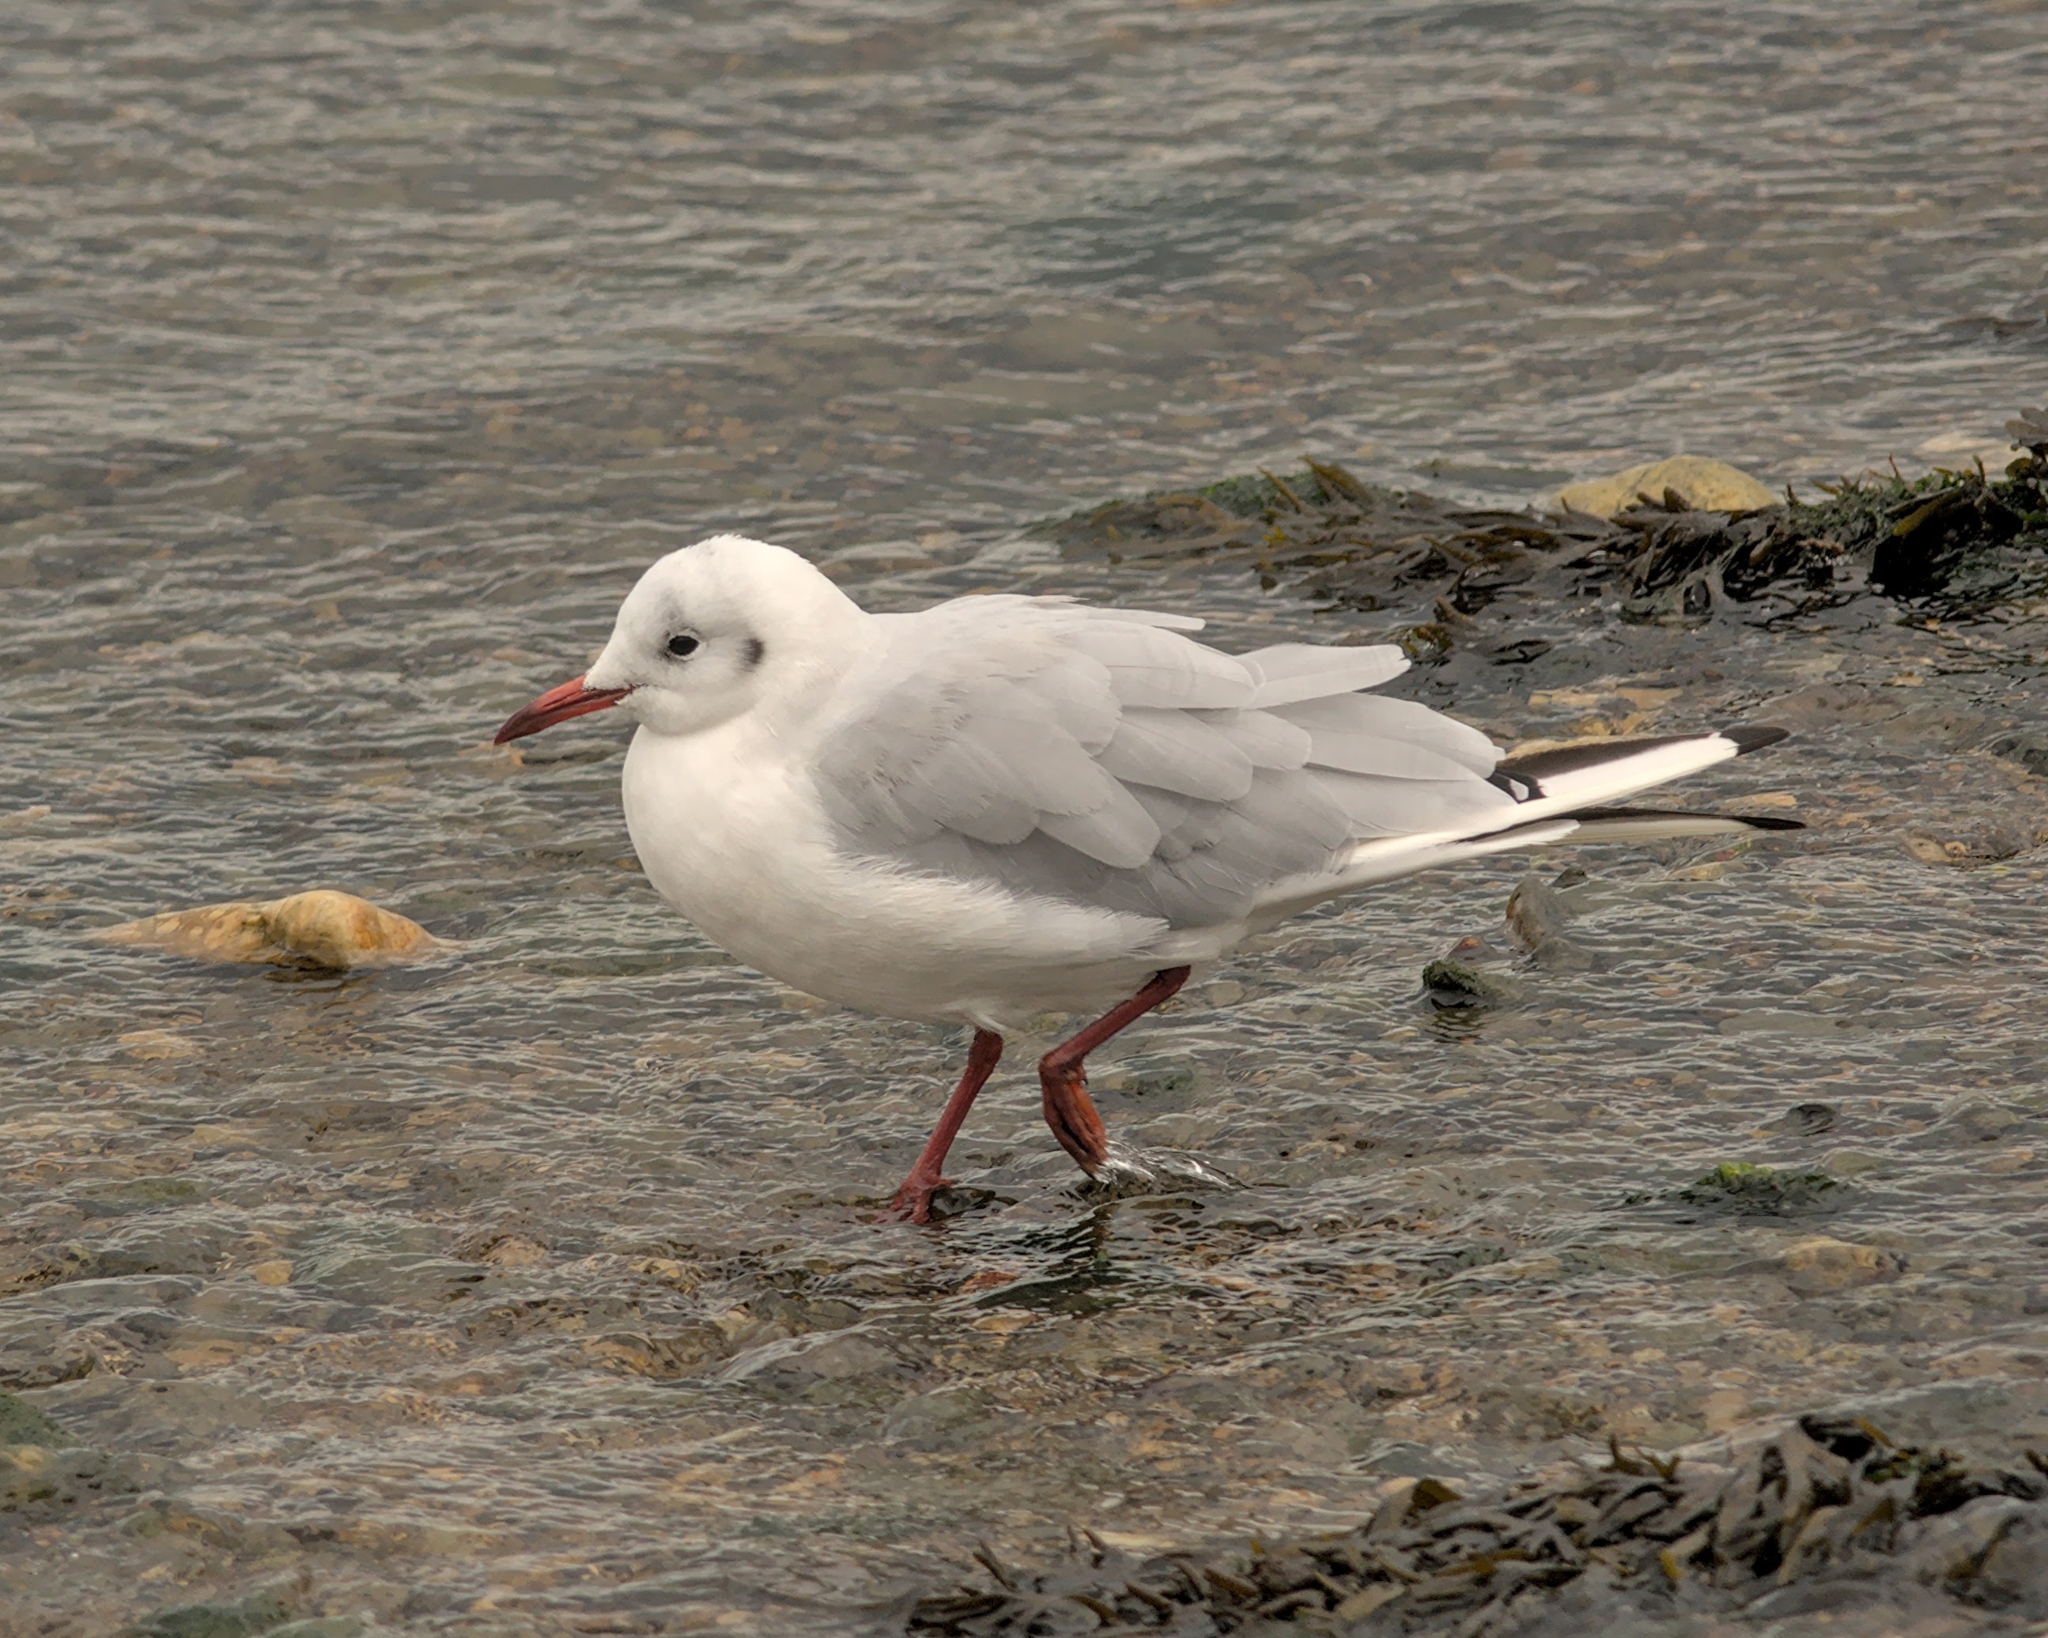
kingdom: Animalia
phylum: Chordata
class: Aves
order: Charadriiformes
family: Laridae
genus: Chroicocephalus
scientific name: Chroicocephalus ridibundus
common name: Black-headed gull
